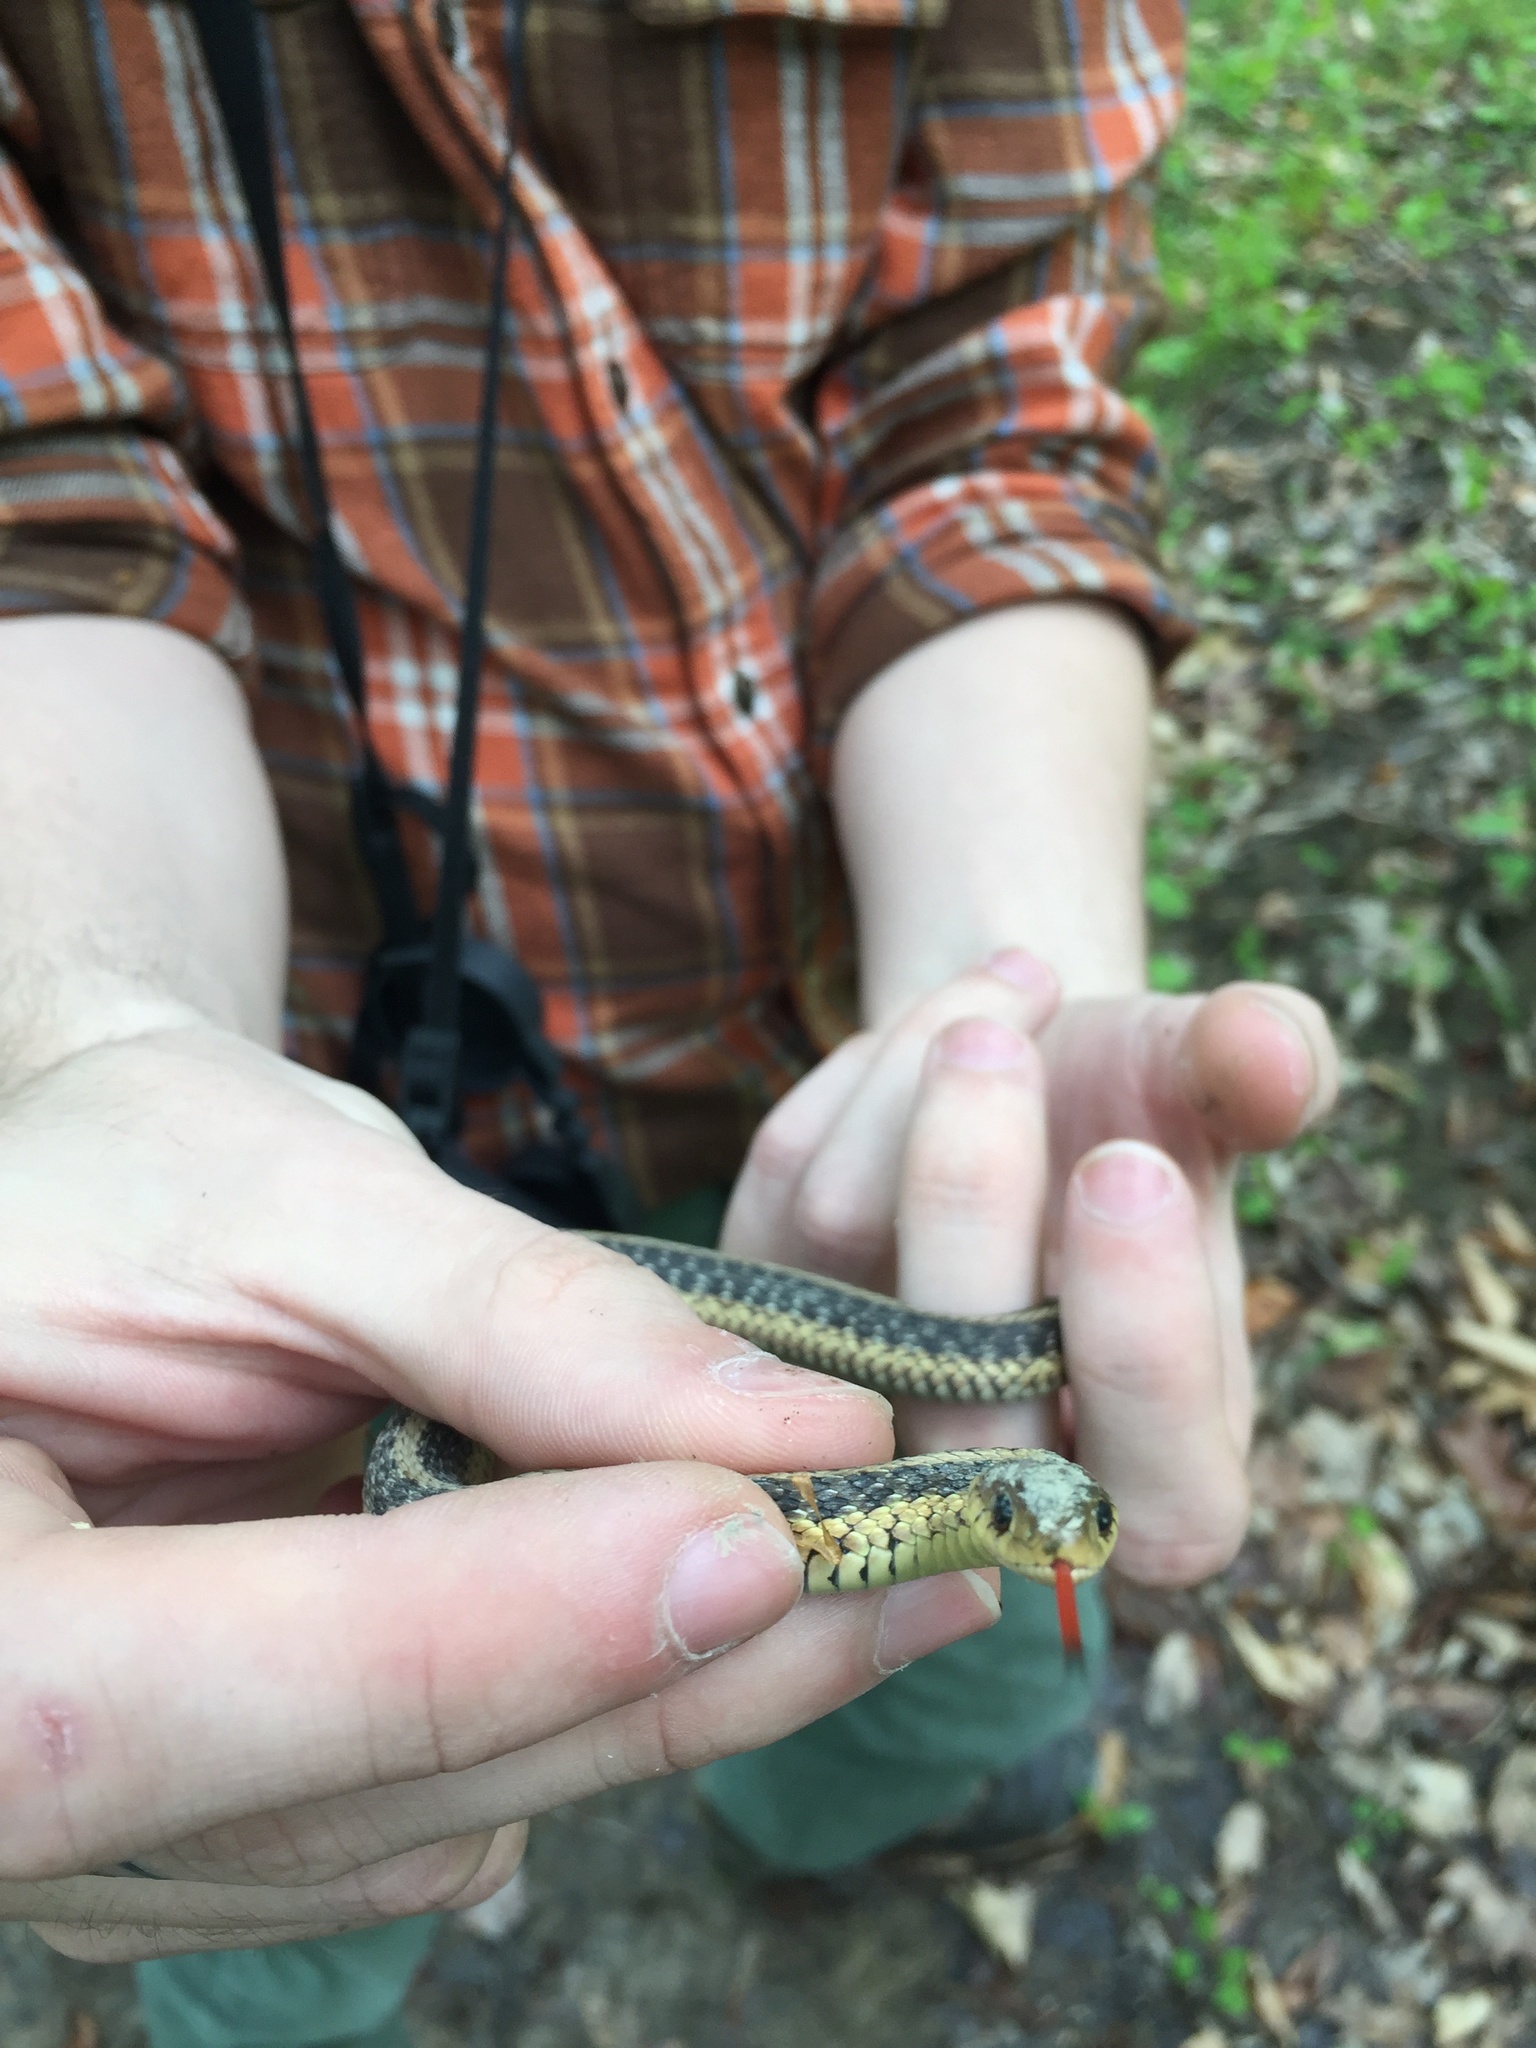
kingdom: Animalia
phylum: Chordata
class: Squamata
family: Colubridae
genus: Thamnophis
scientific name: Thamnophis sirtalis
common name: Common garter snake
